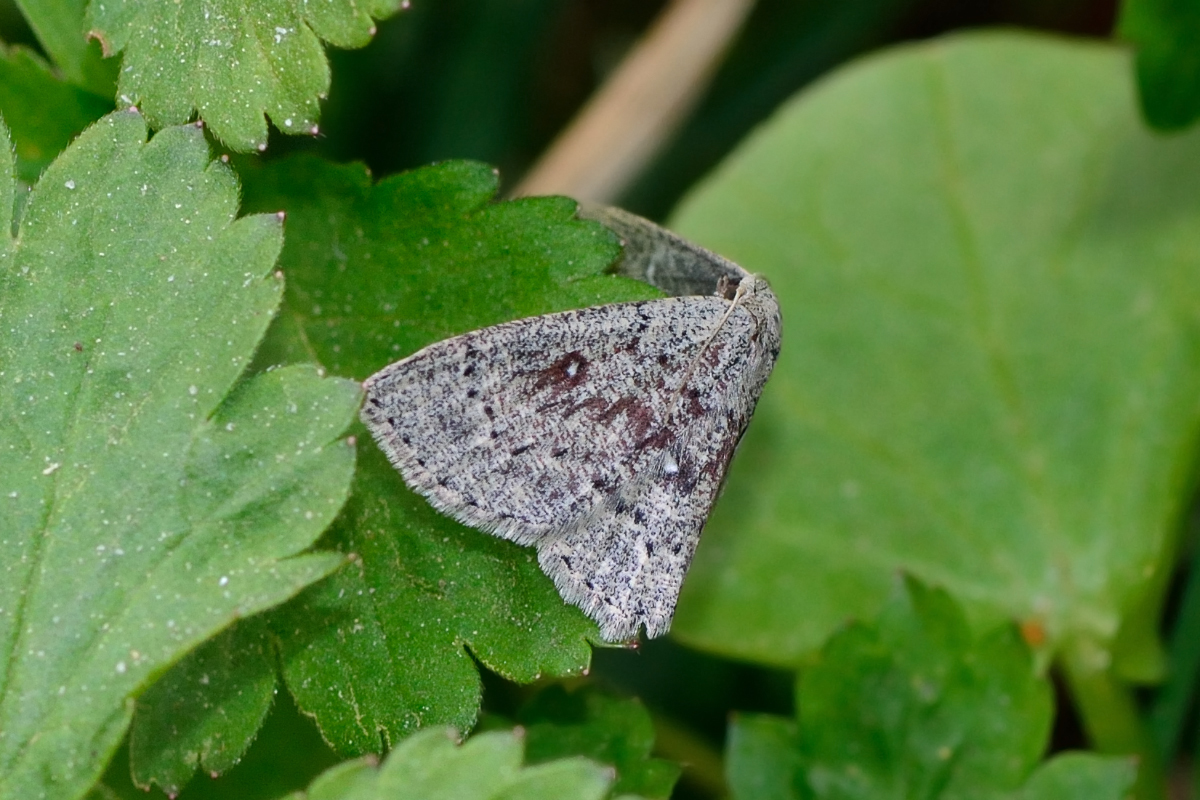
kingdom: Animalia
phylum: Arthropoda
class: Insecta
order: Lepidoptera
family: Geometridae
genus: Cyclophora
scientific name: Cyclophora pendularia
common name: Dingy mocha
